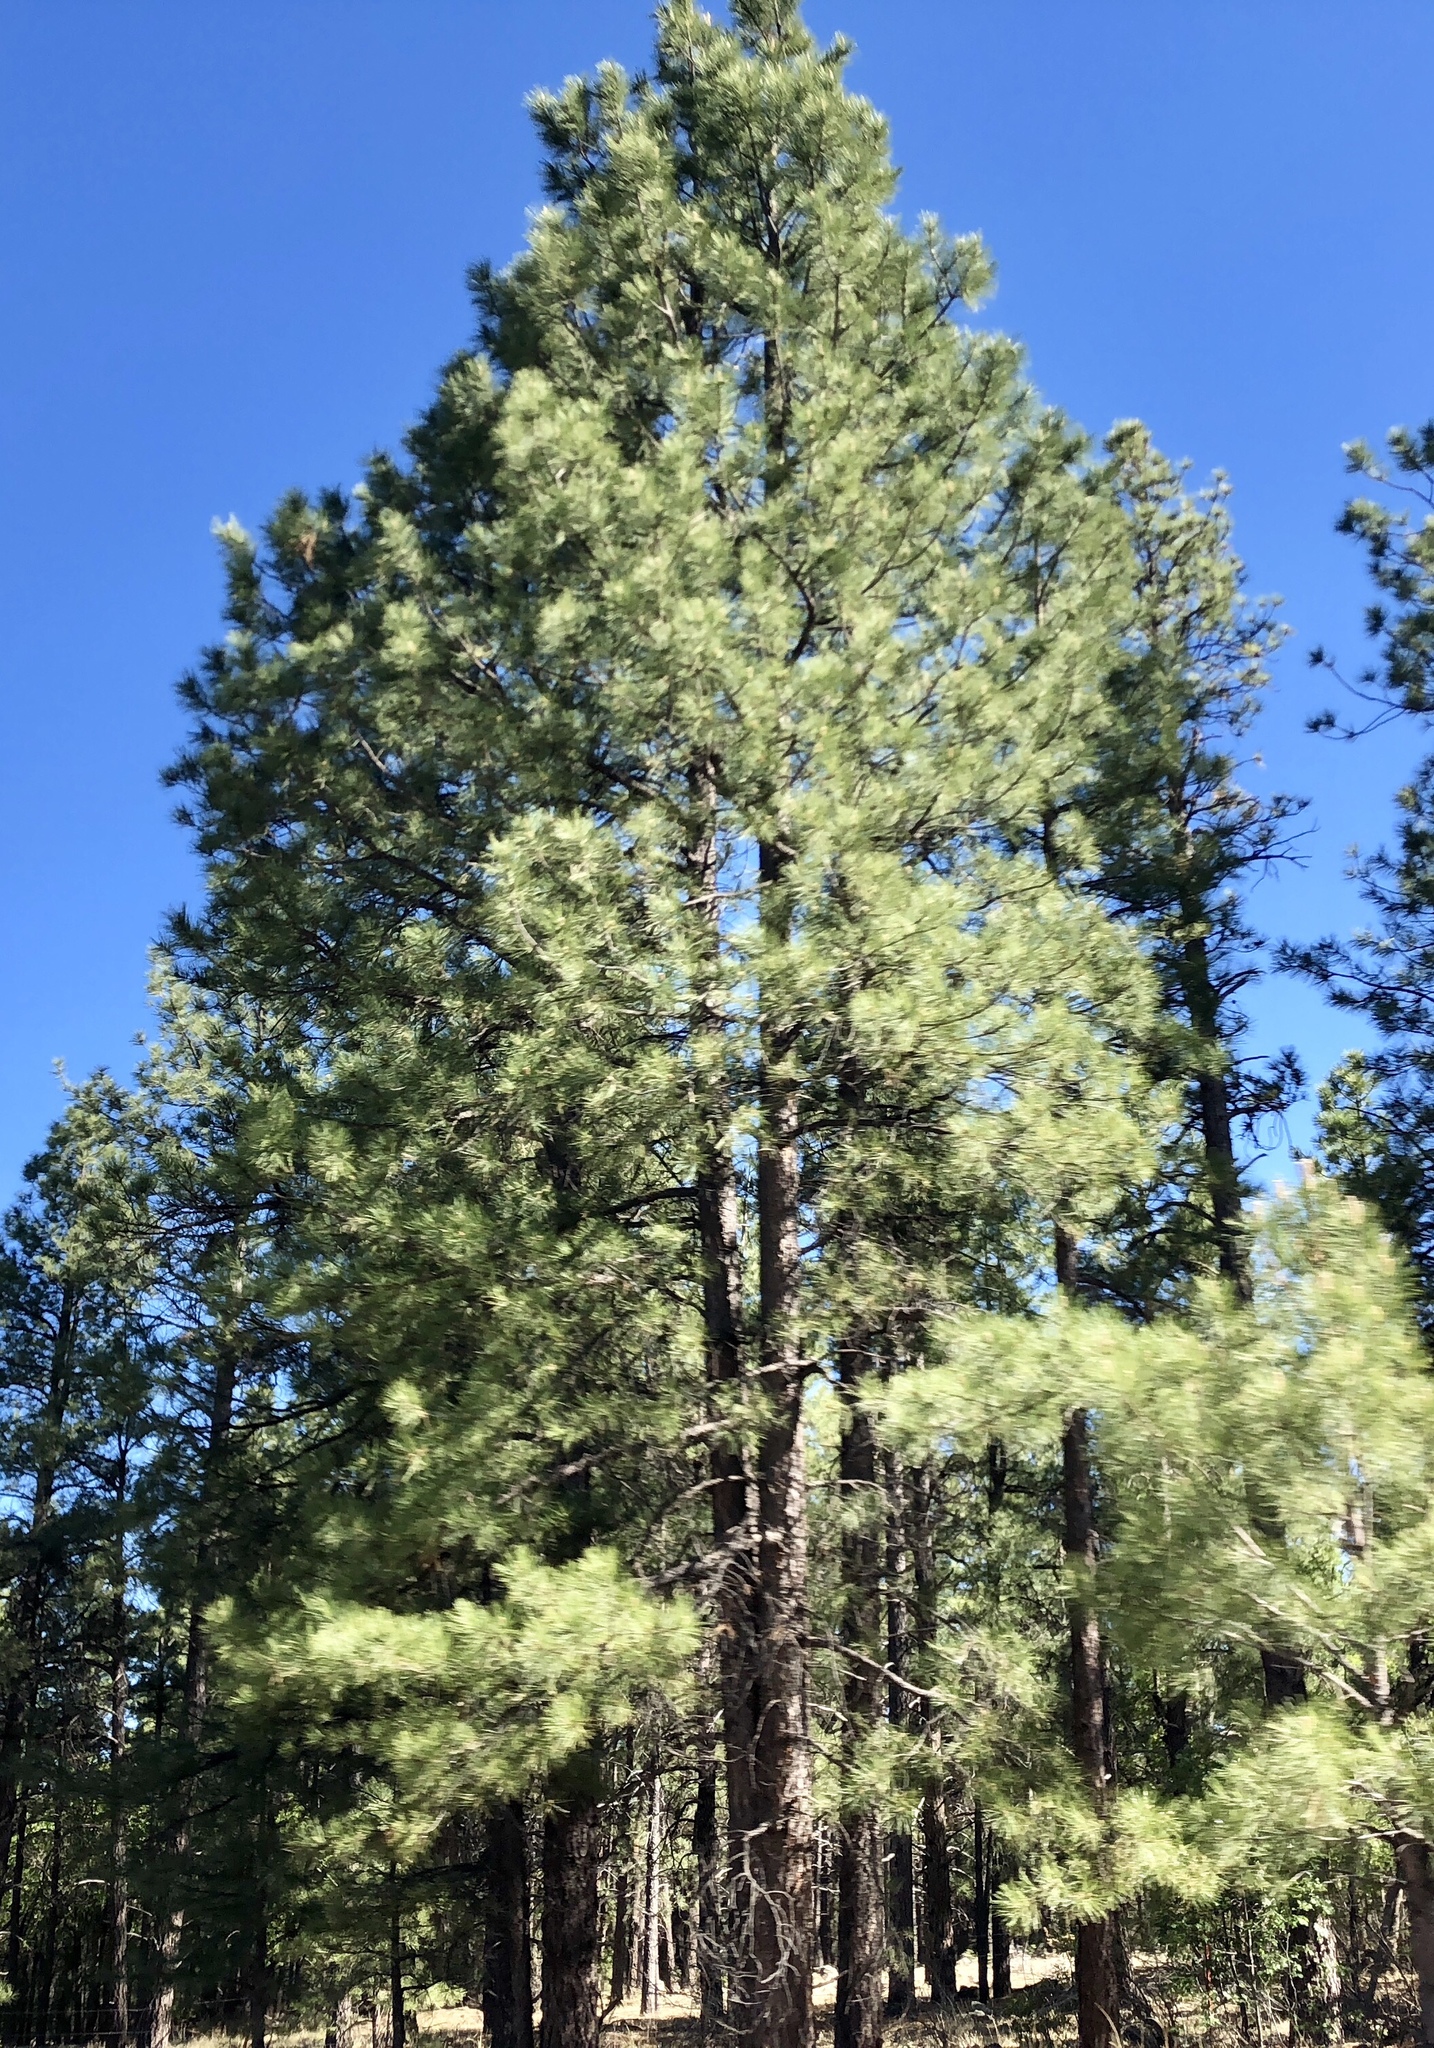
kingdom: Plantae
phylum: Tracheophyta
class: Pinopsida
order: Pinales
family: Pinaceae
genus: Pinus
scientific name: Pinus ponderosa
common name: Western yellow-pine
